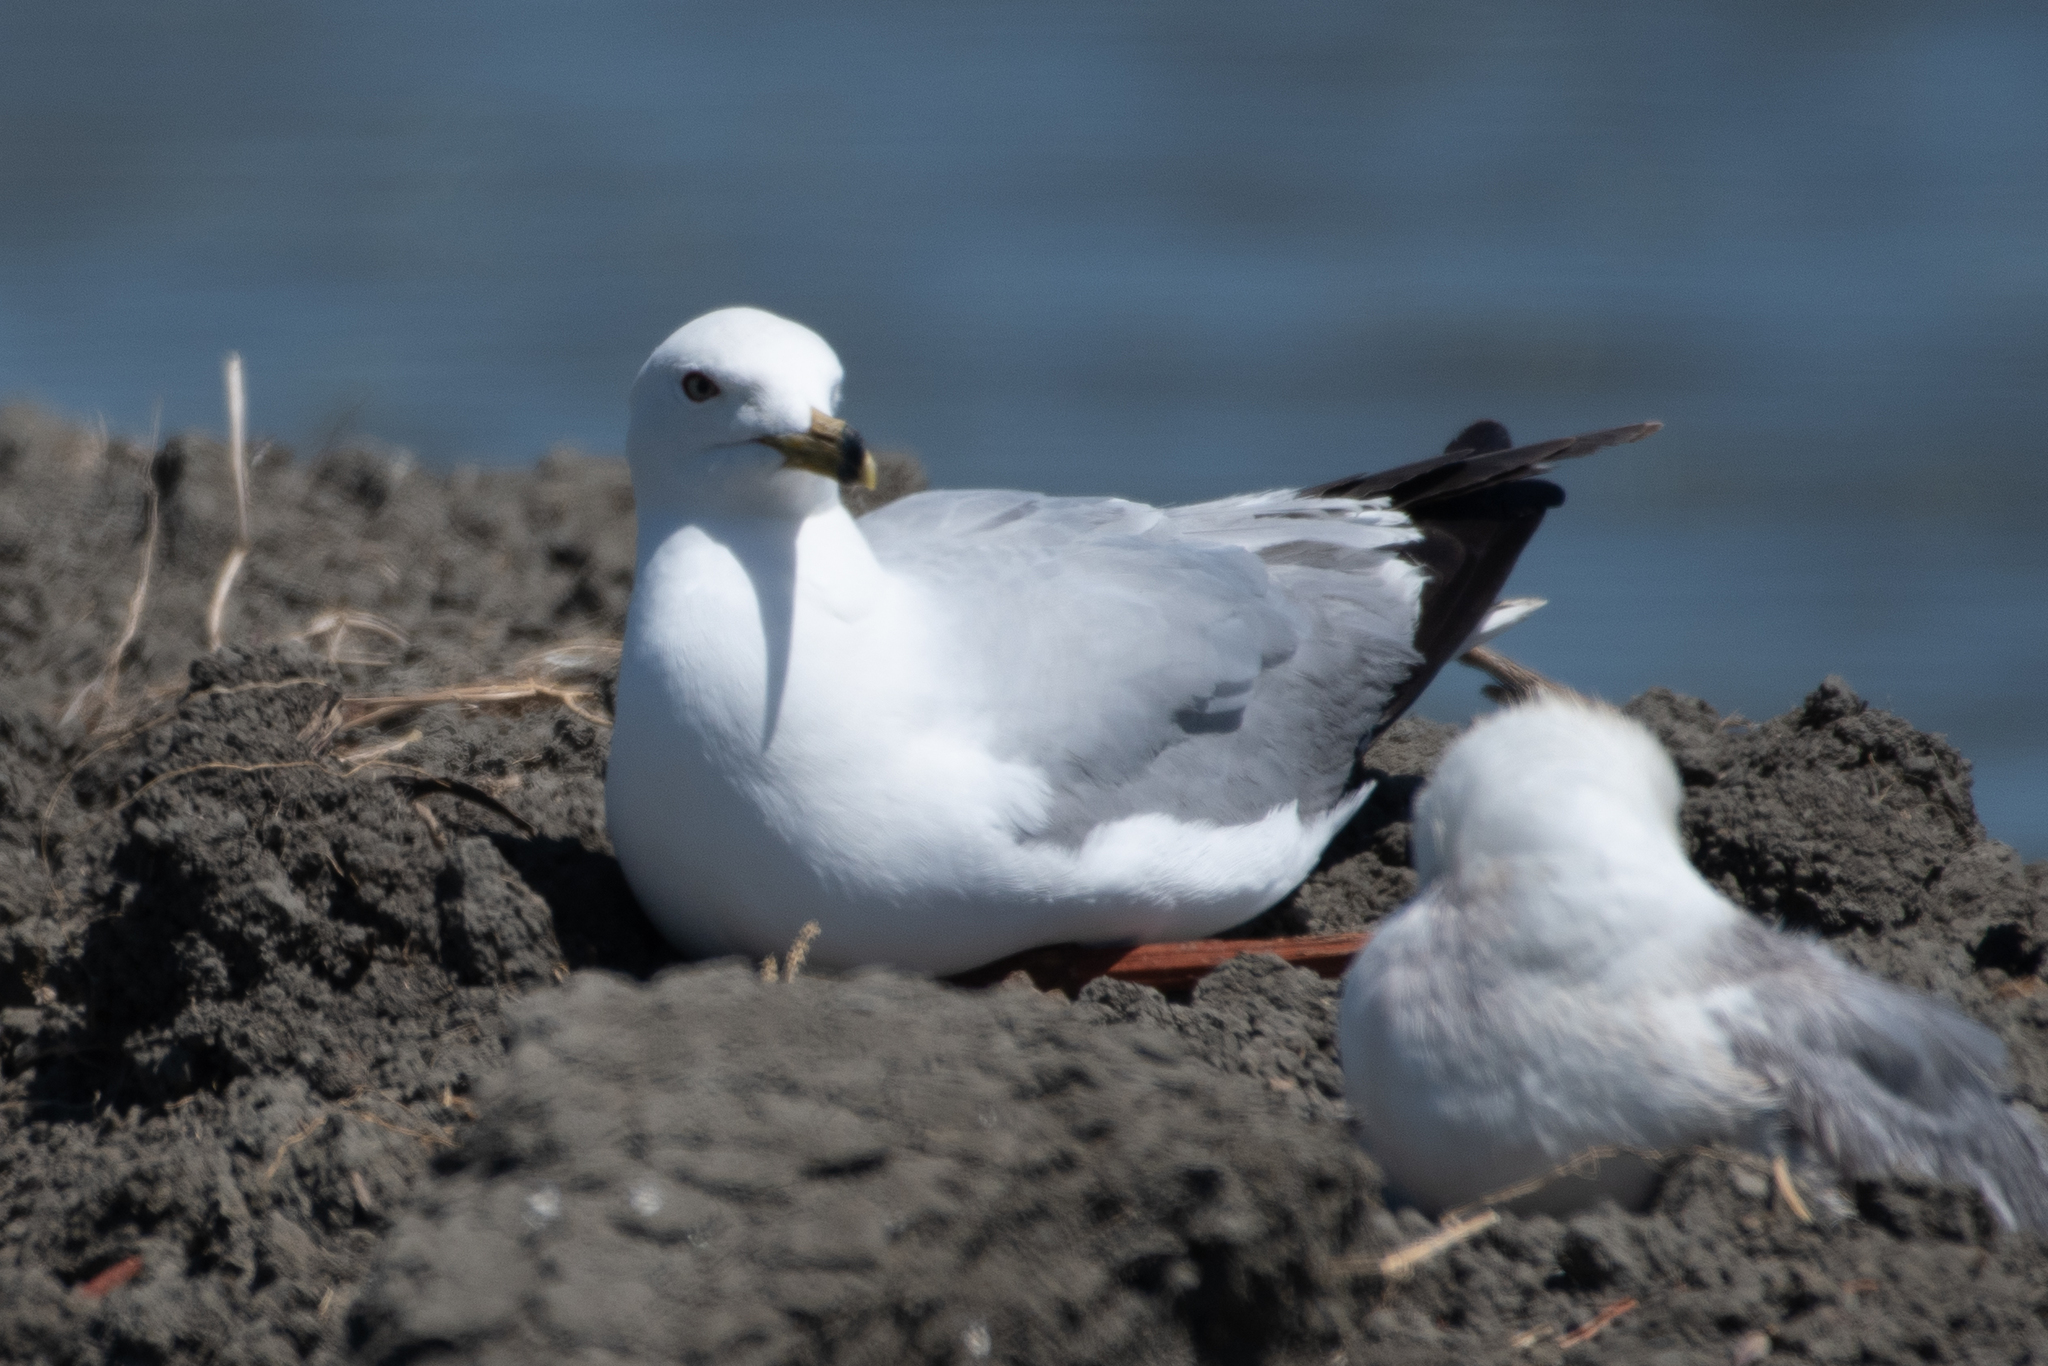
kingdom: Animalia
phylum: Chordata
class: Aves
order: Charadriiformes
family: Laridae
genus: Larus
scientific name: Larus delawarensis
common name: Ring-billed gull
